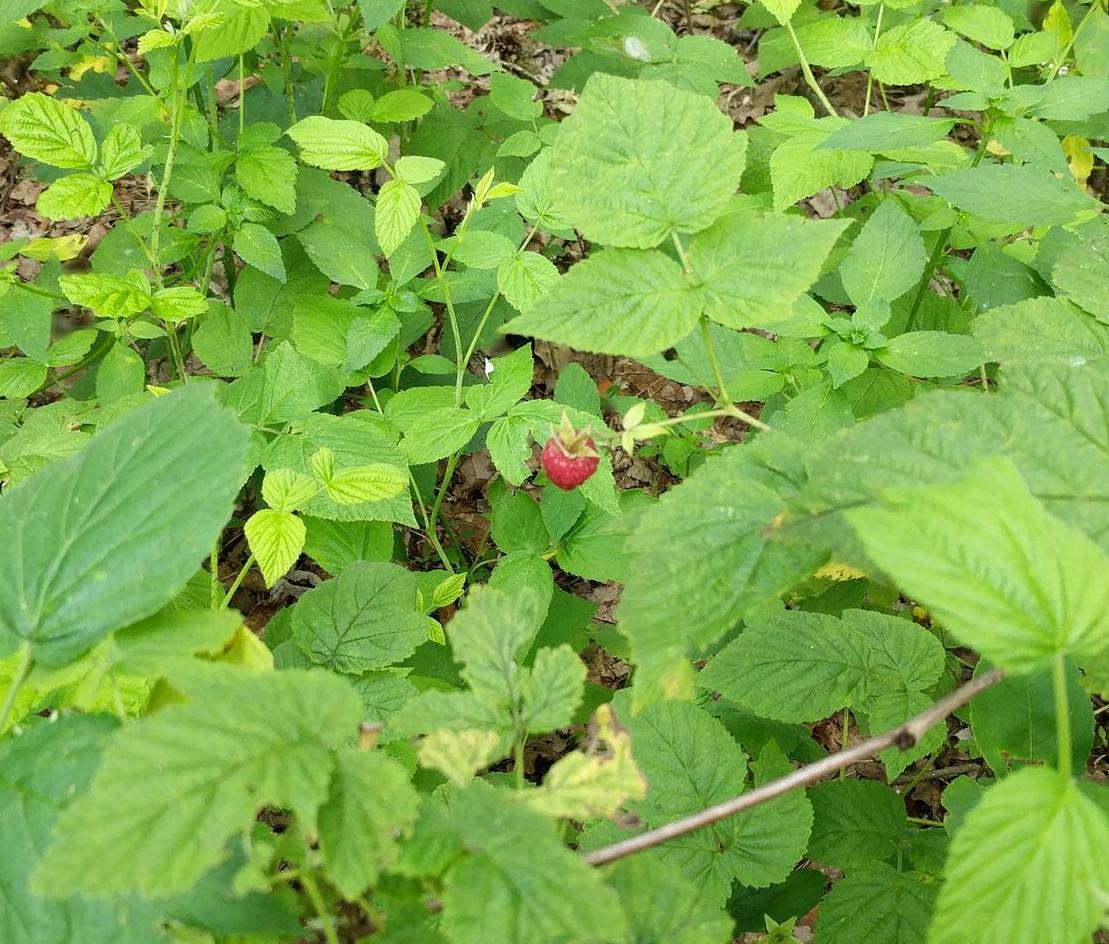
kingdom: Plantae
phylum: Tracheophyta
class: Magnoliopsida
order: Rosales
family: Rosaceae
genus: Rubus
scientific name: Rubus idaeus
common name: Raspberry
